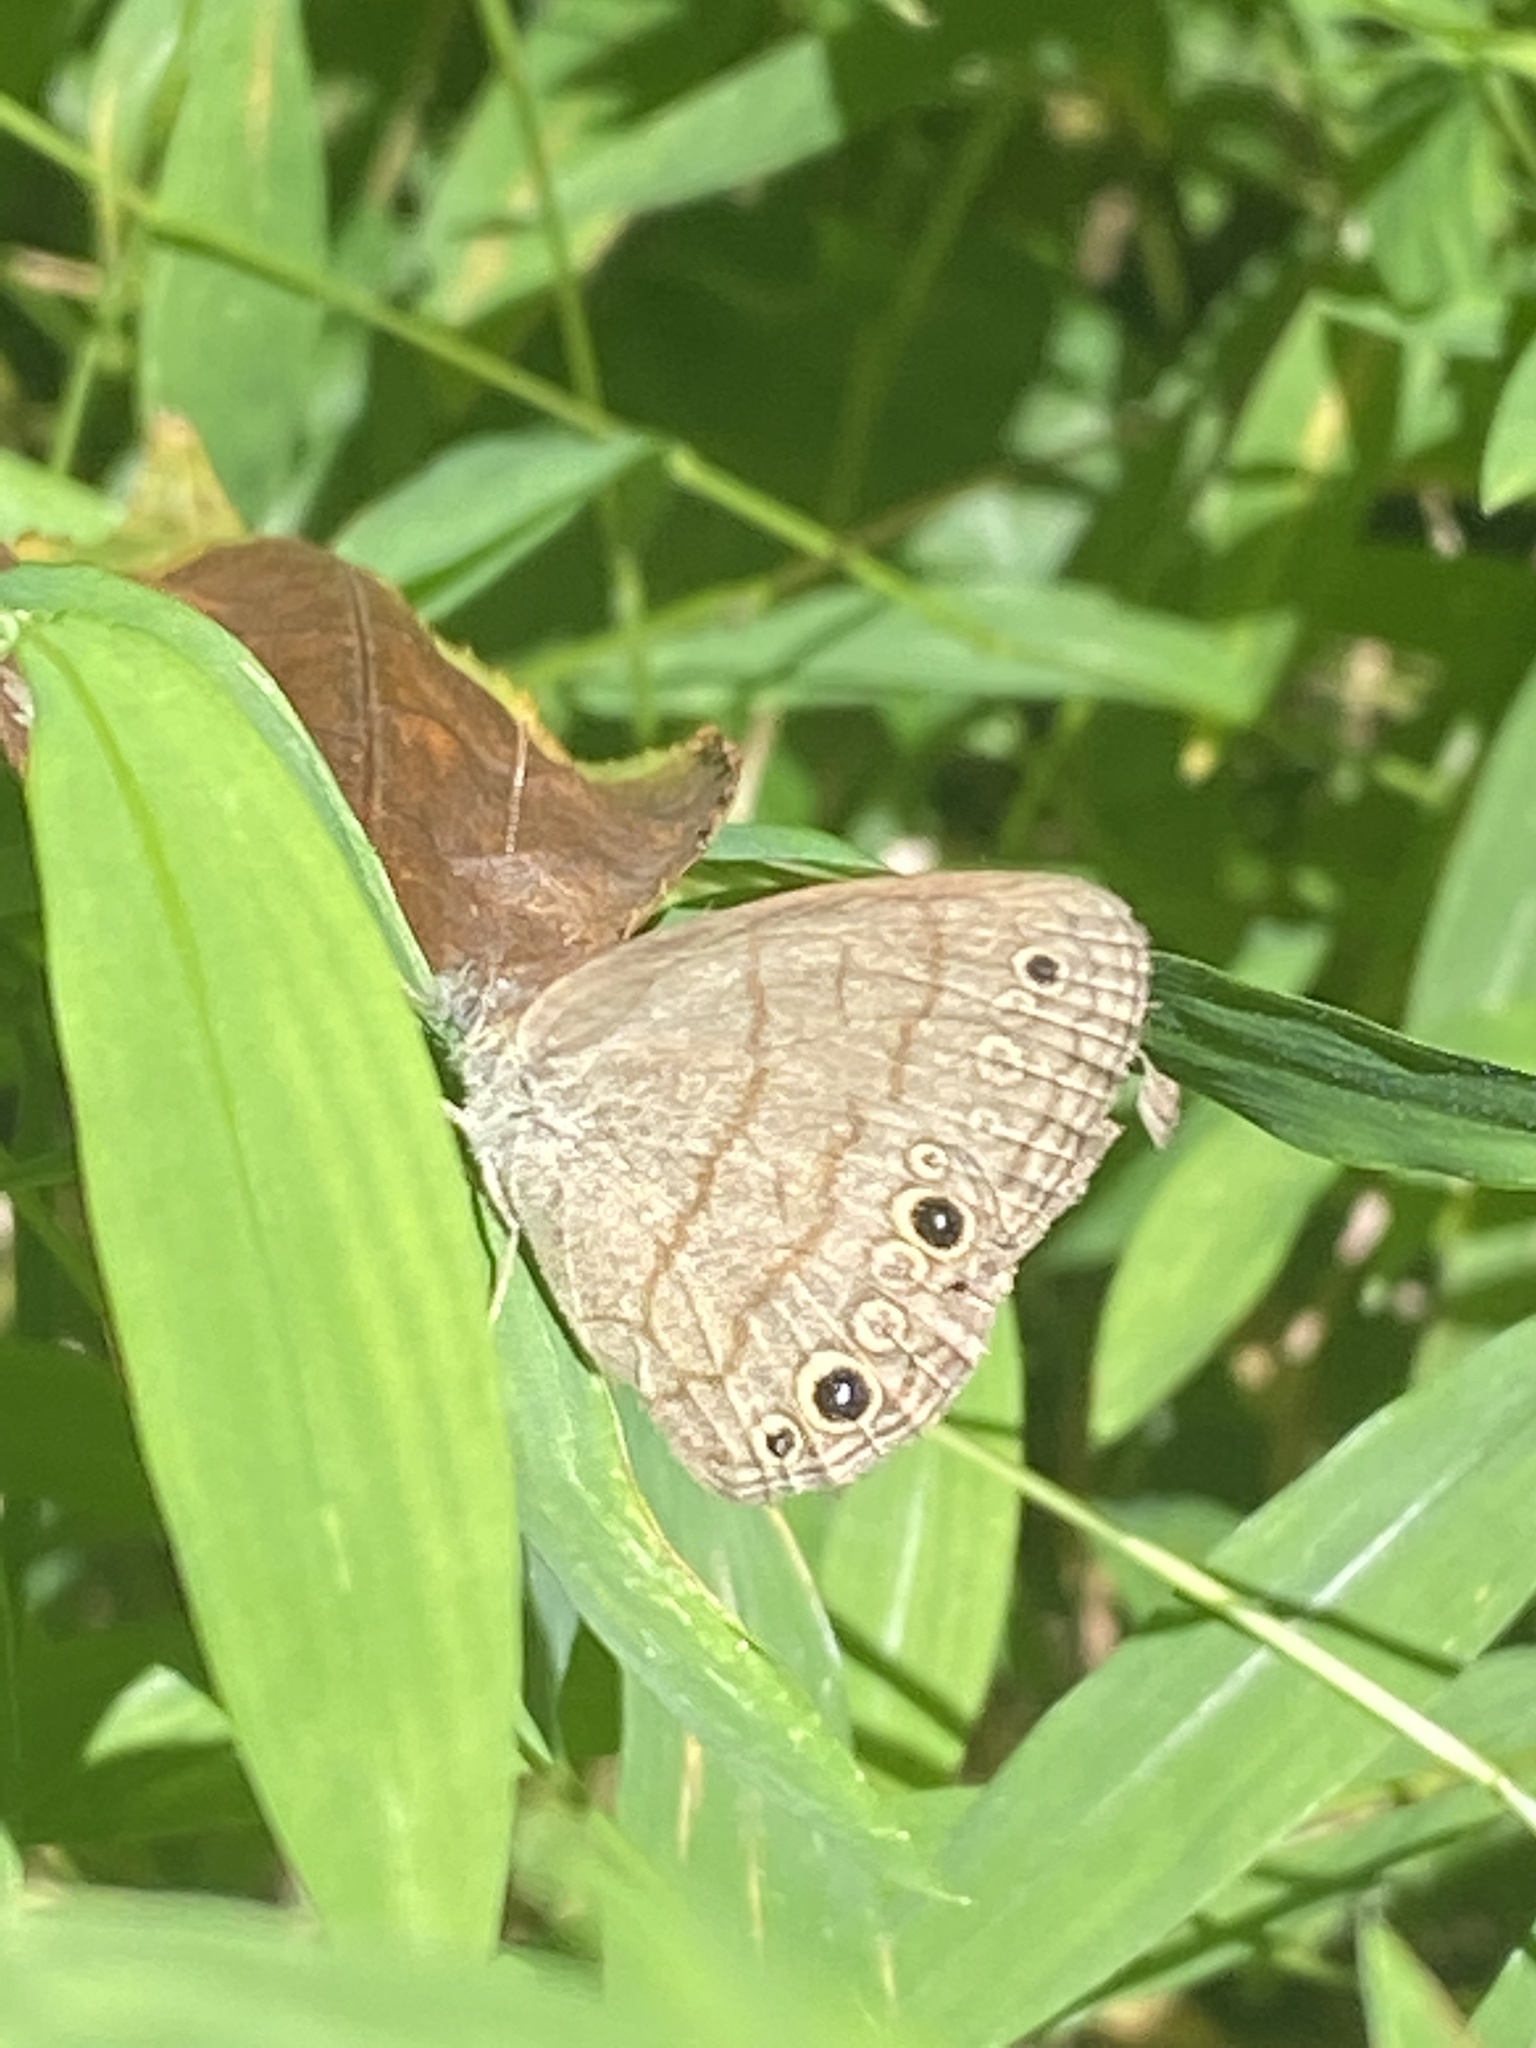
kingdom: Animalia
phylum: Arthropoda
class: Insecta
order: Lepidoptera
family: Nymphalidae
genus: Hermeuptychia
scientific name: Hermeuptychia hermes
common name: Hermes satyr
